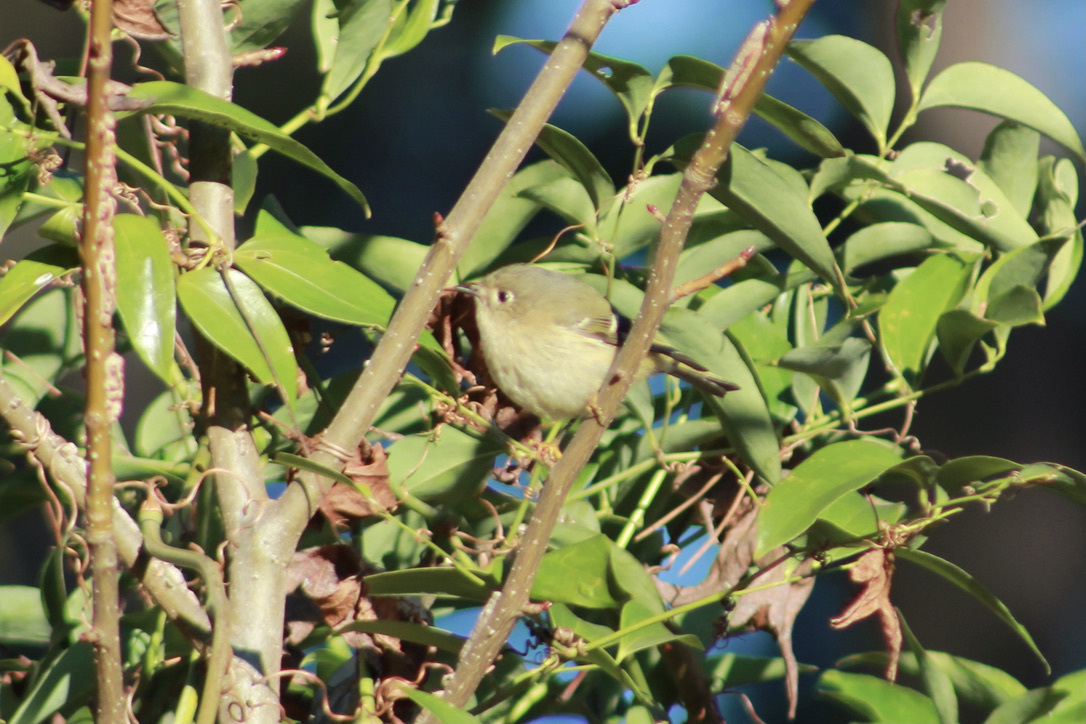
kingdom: Animalia
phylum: Chordata
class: Aves
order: Passeriformes
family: Regulidae
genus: Regulus
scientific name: Regulus calendula
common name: Ruby-crowned kinglet
